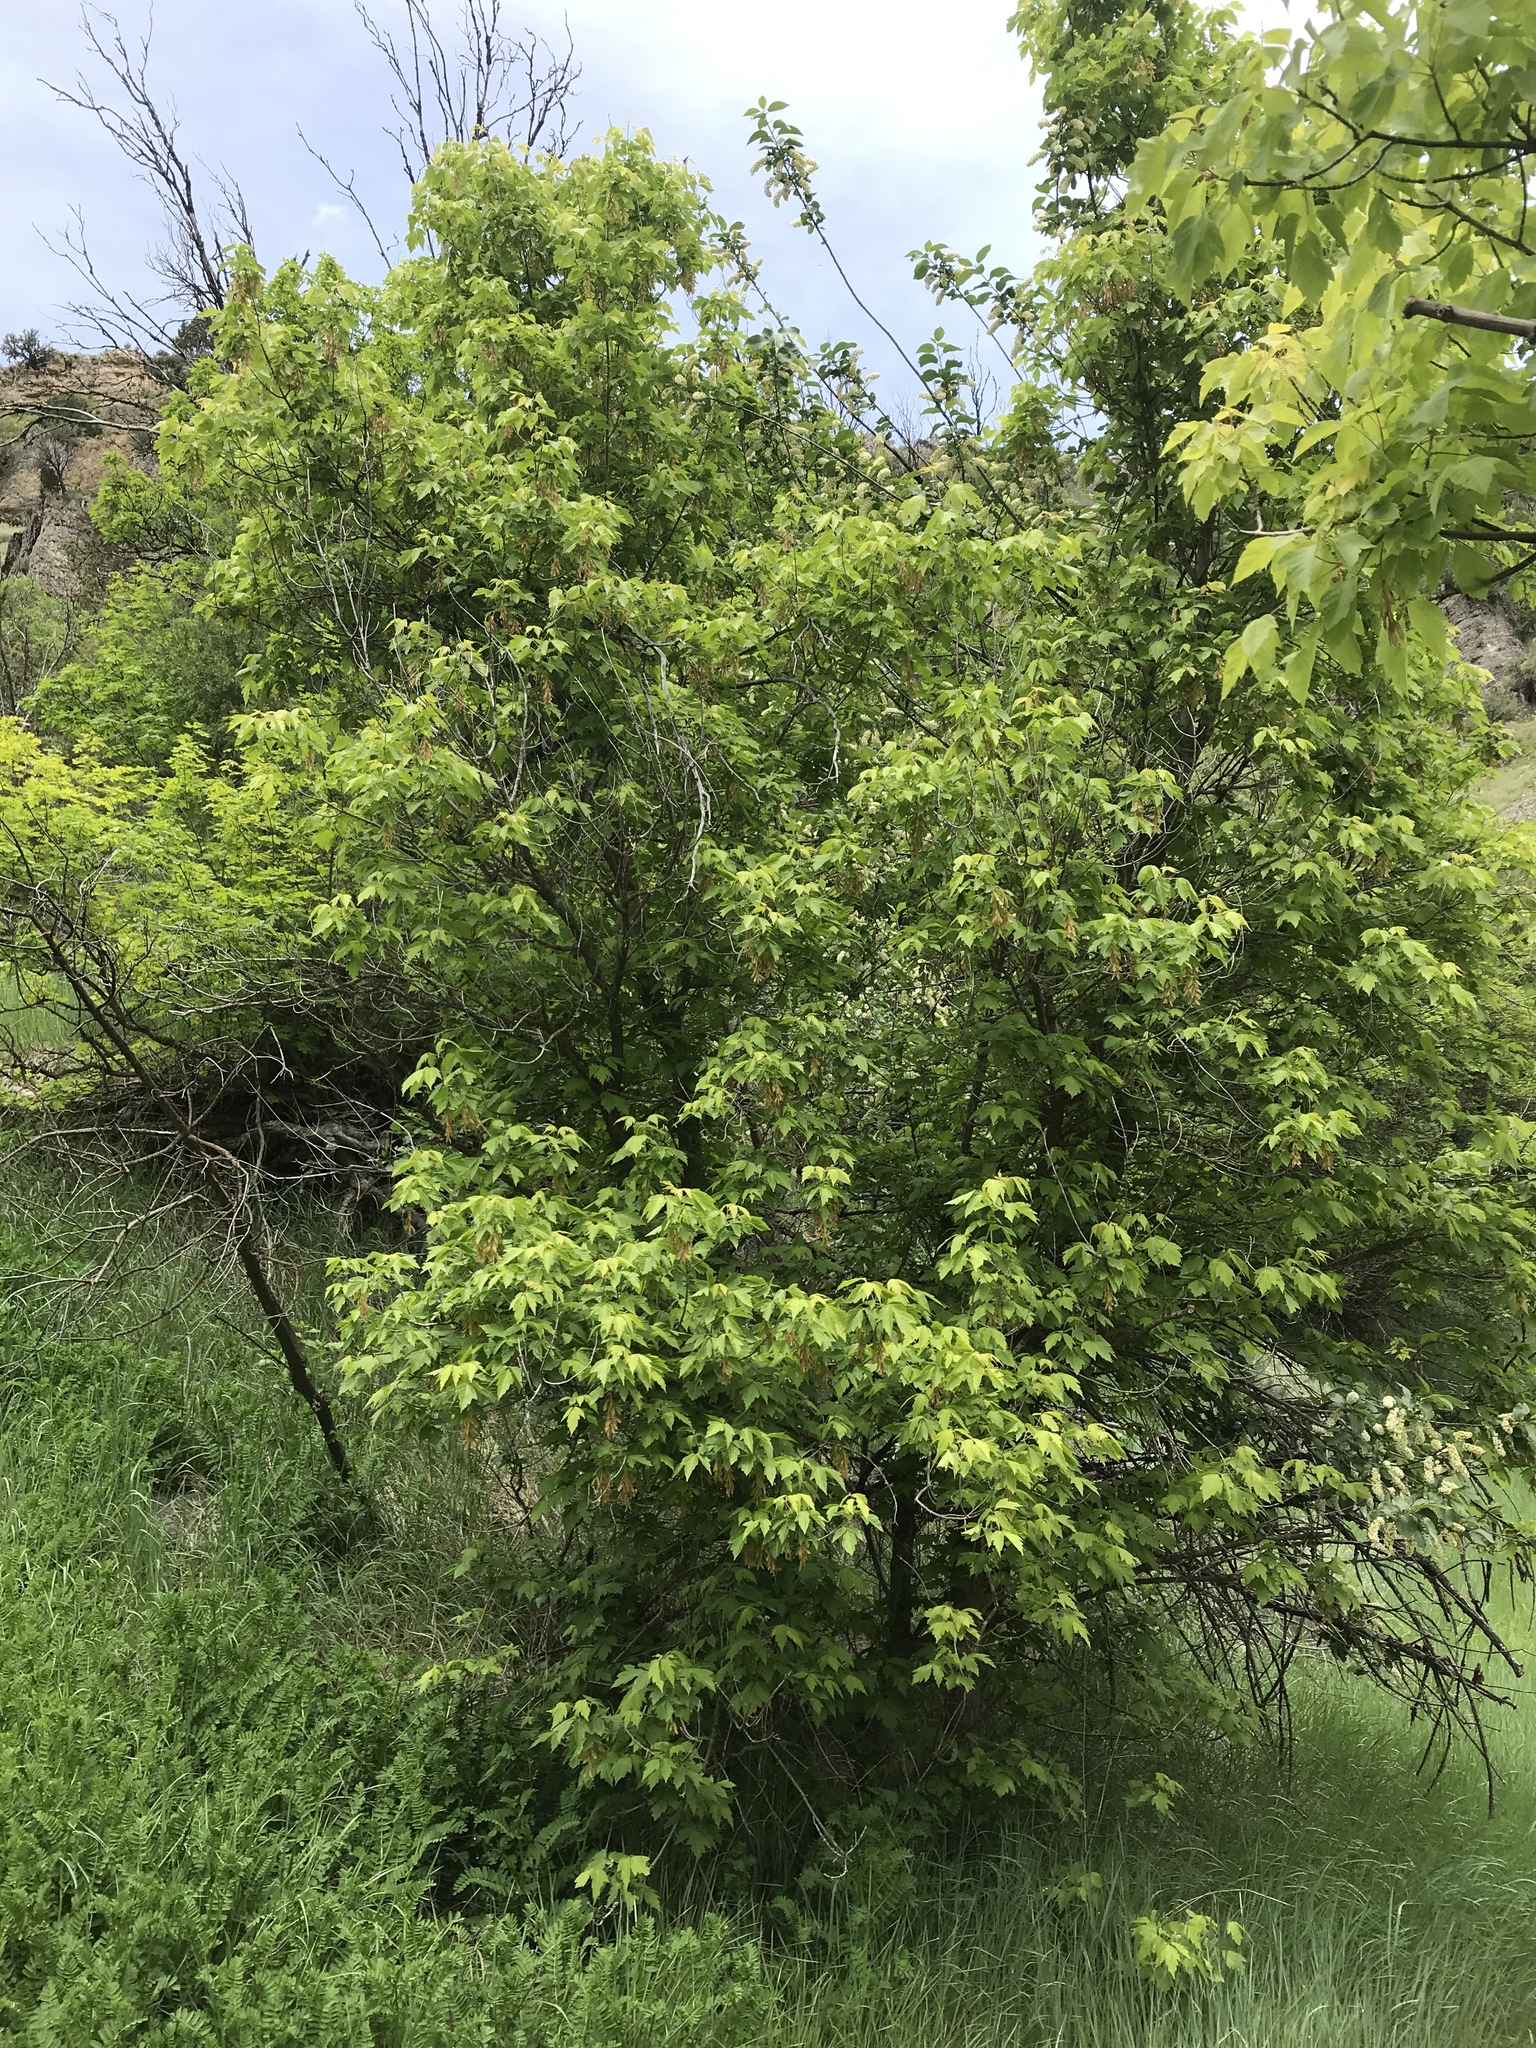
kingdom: Plantae
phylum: Tracheophyta
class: Magnoliopsida
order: Sapindales
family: Sapindaceae
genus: Acer
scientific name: Acer negundo
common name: Ashleaf maple
